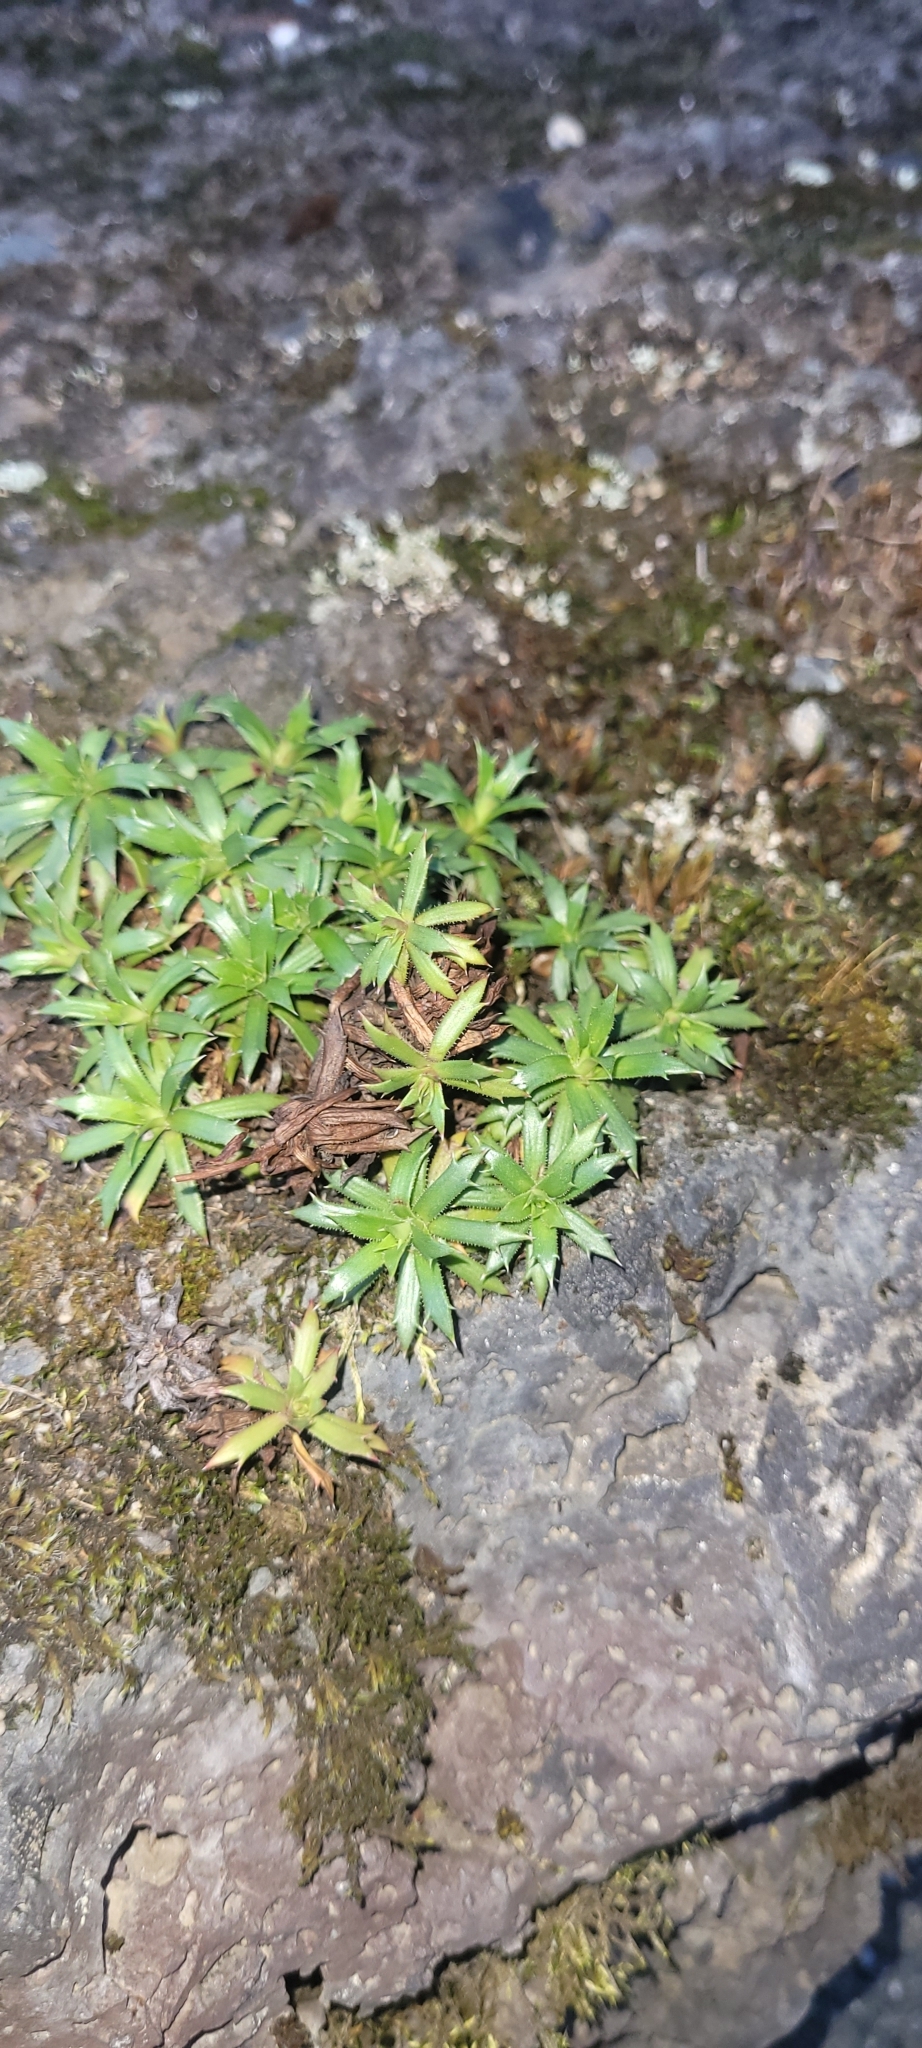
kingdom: Plantae
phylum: Tracheophyta
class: Magnoliopsida
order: Saxifragales
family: Saxifragaceae
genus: Saxifraga
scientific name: Saxifraga tricuspidata
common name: Prickly saxifrage
